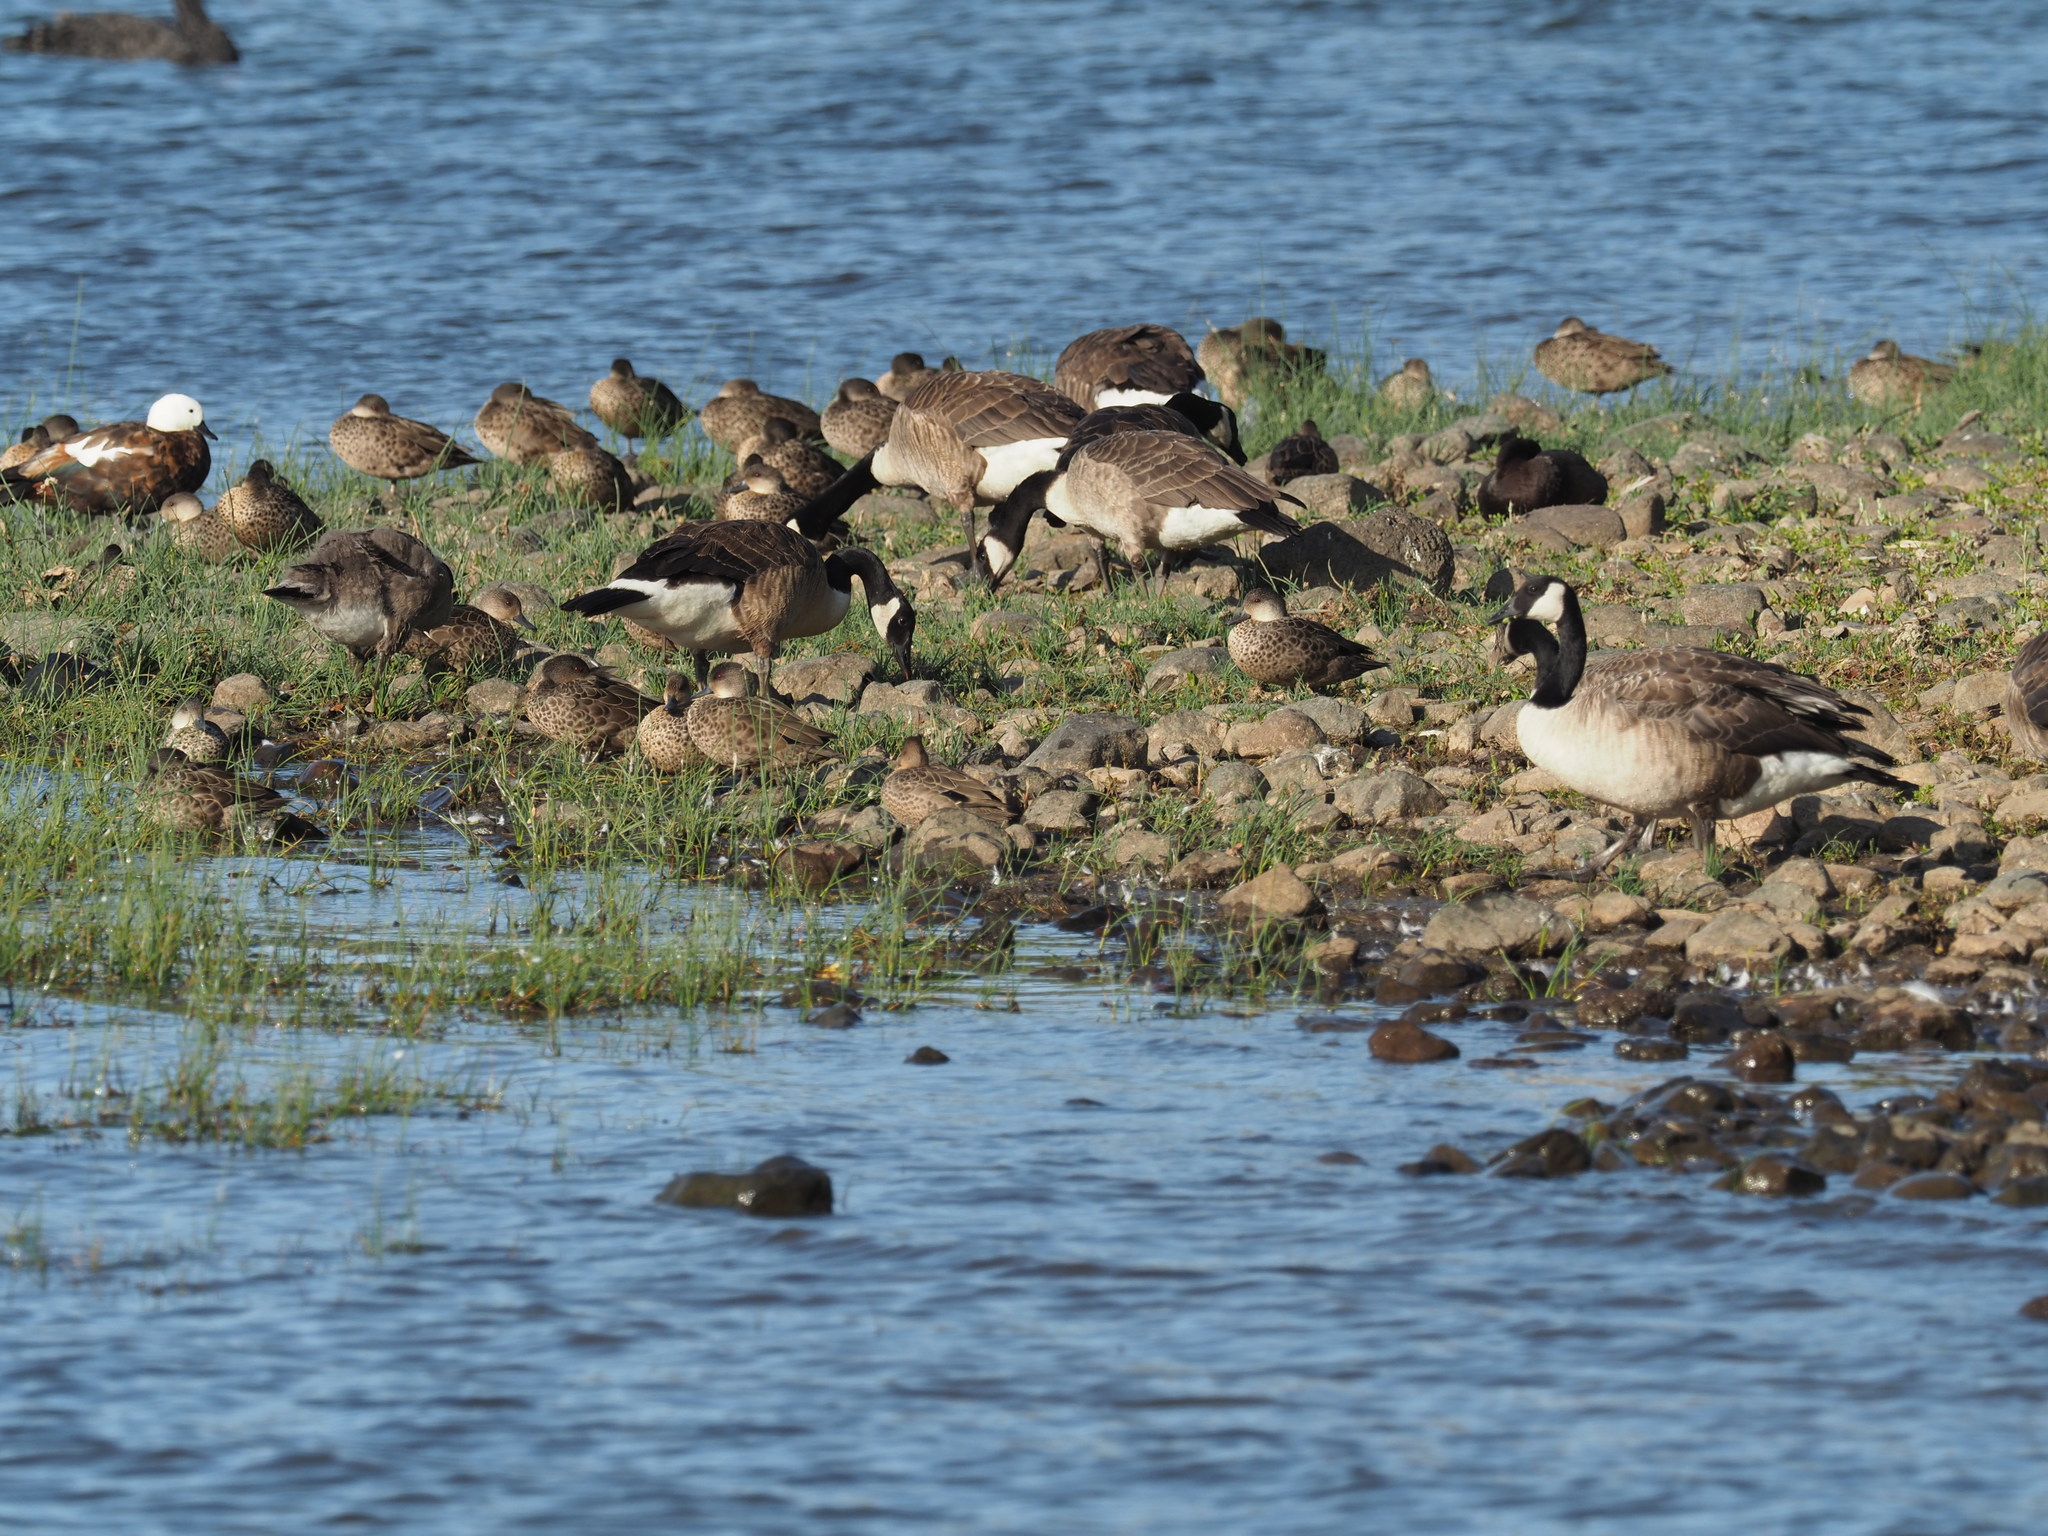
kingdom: Animalia
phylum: Chordata
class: Aves
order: Anseriformes
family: Anatidae
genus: Tadorna
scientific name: Tadorna variegata
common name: Paradise shelduck
